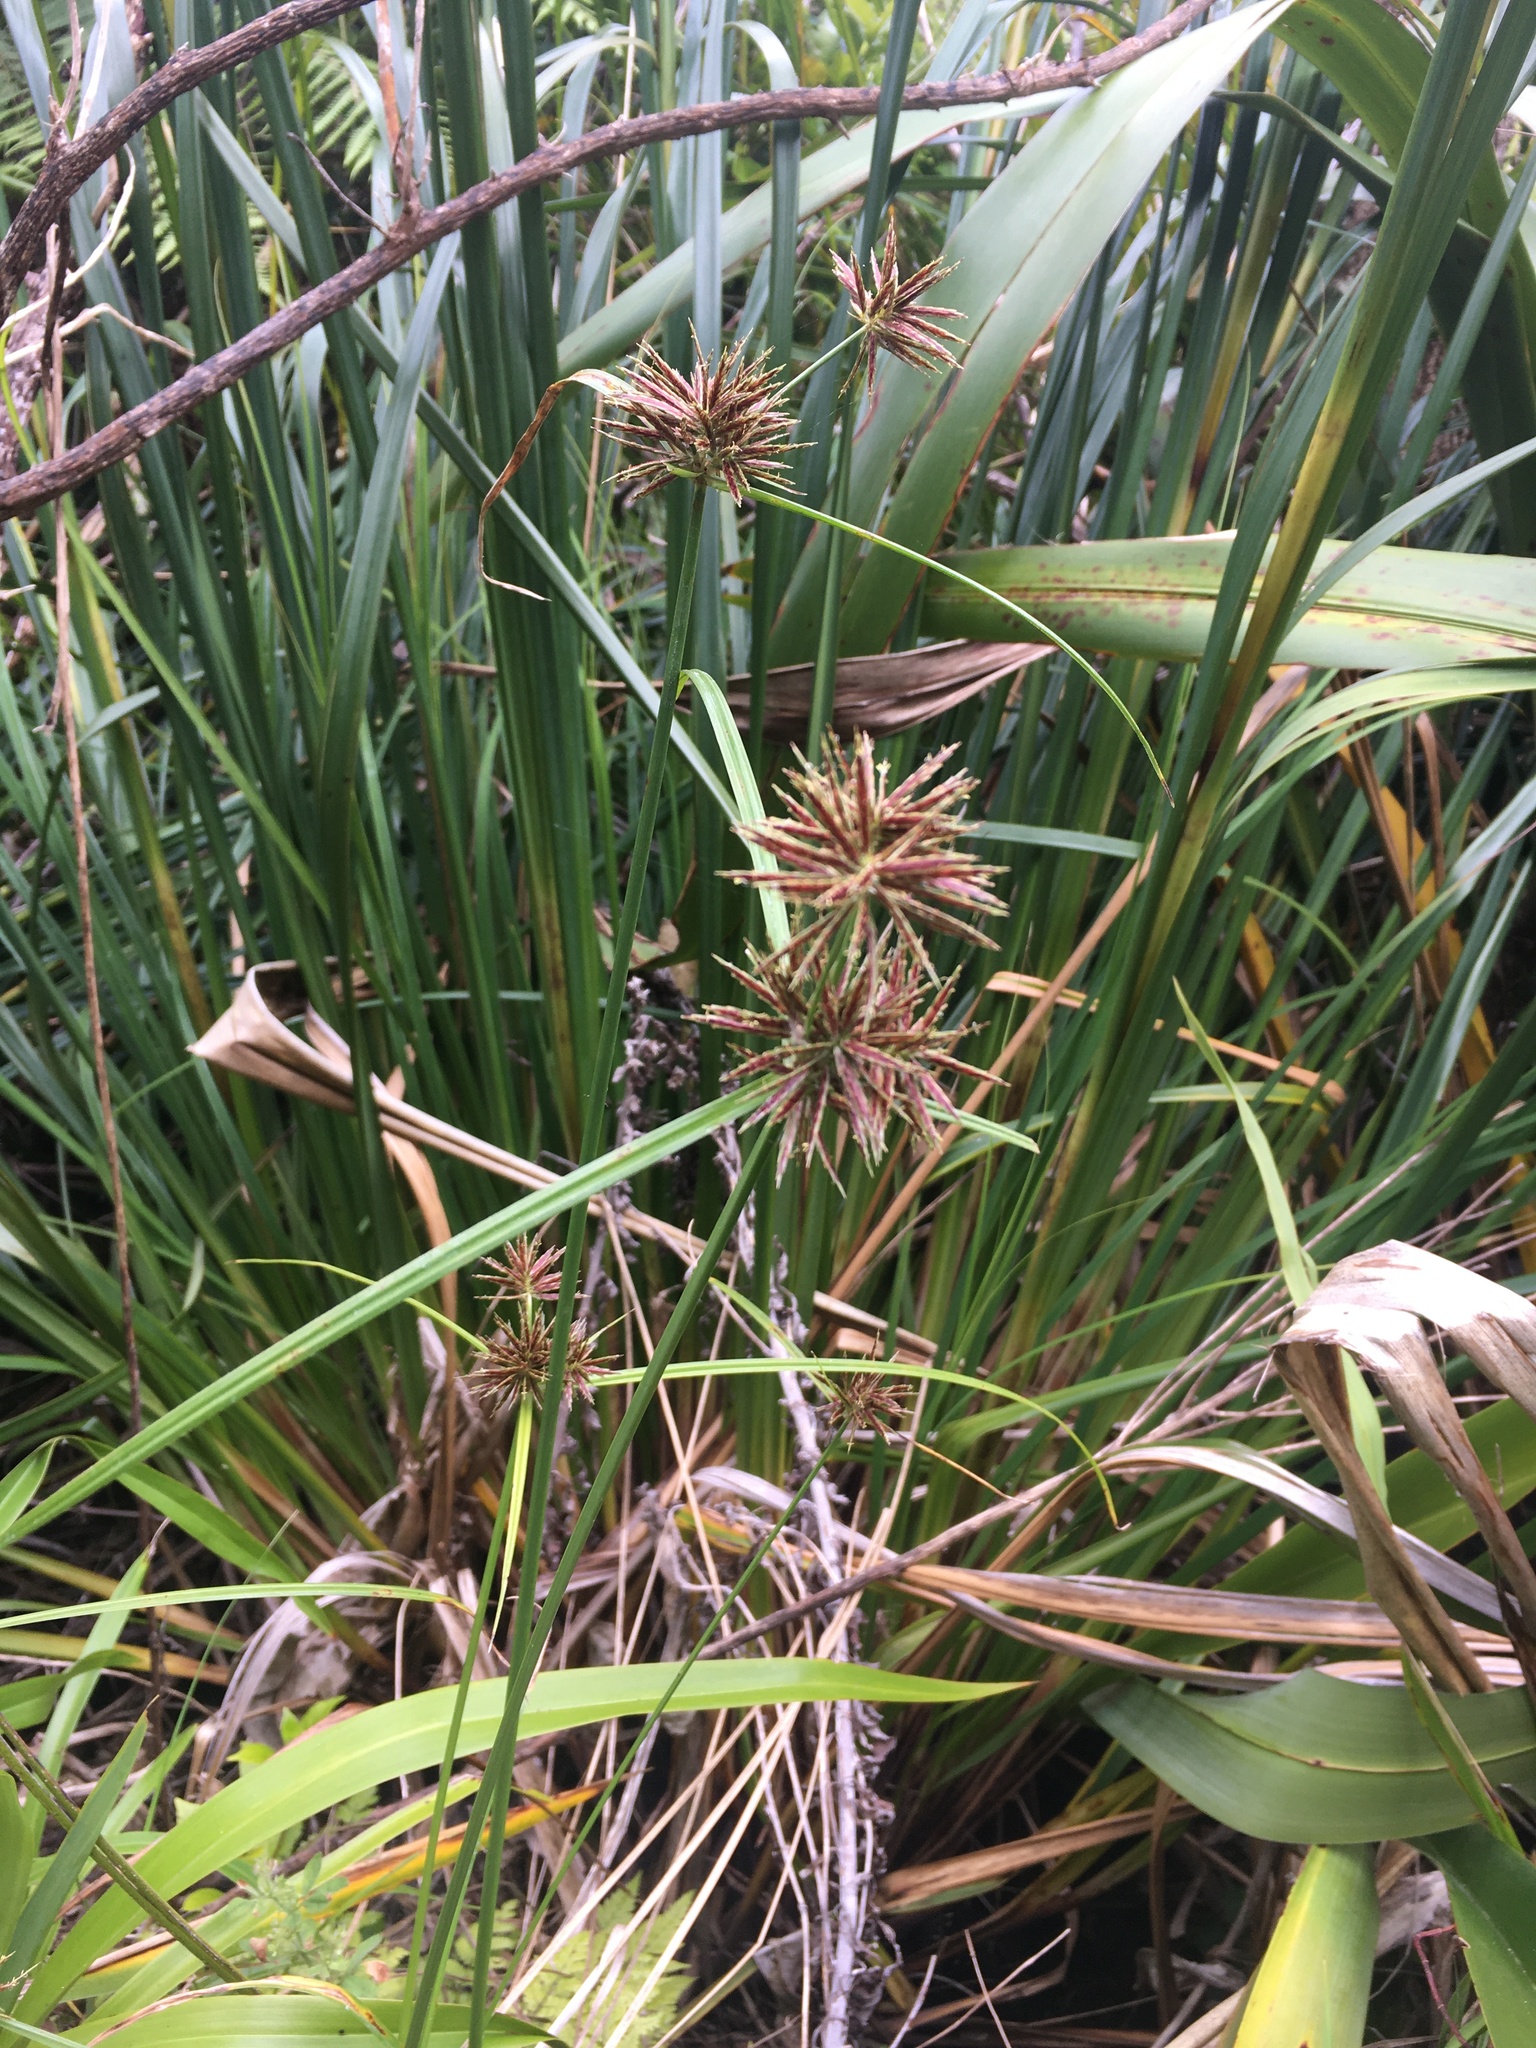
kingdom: Plantae
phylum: Tracheophyta
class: Liliopsida
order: Poales
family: Cyperaceae
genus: Cyperus
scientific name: Cyperus congestus
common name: Dense flat sedge
